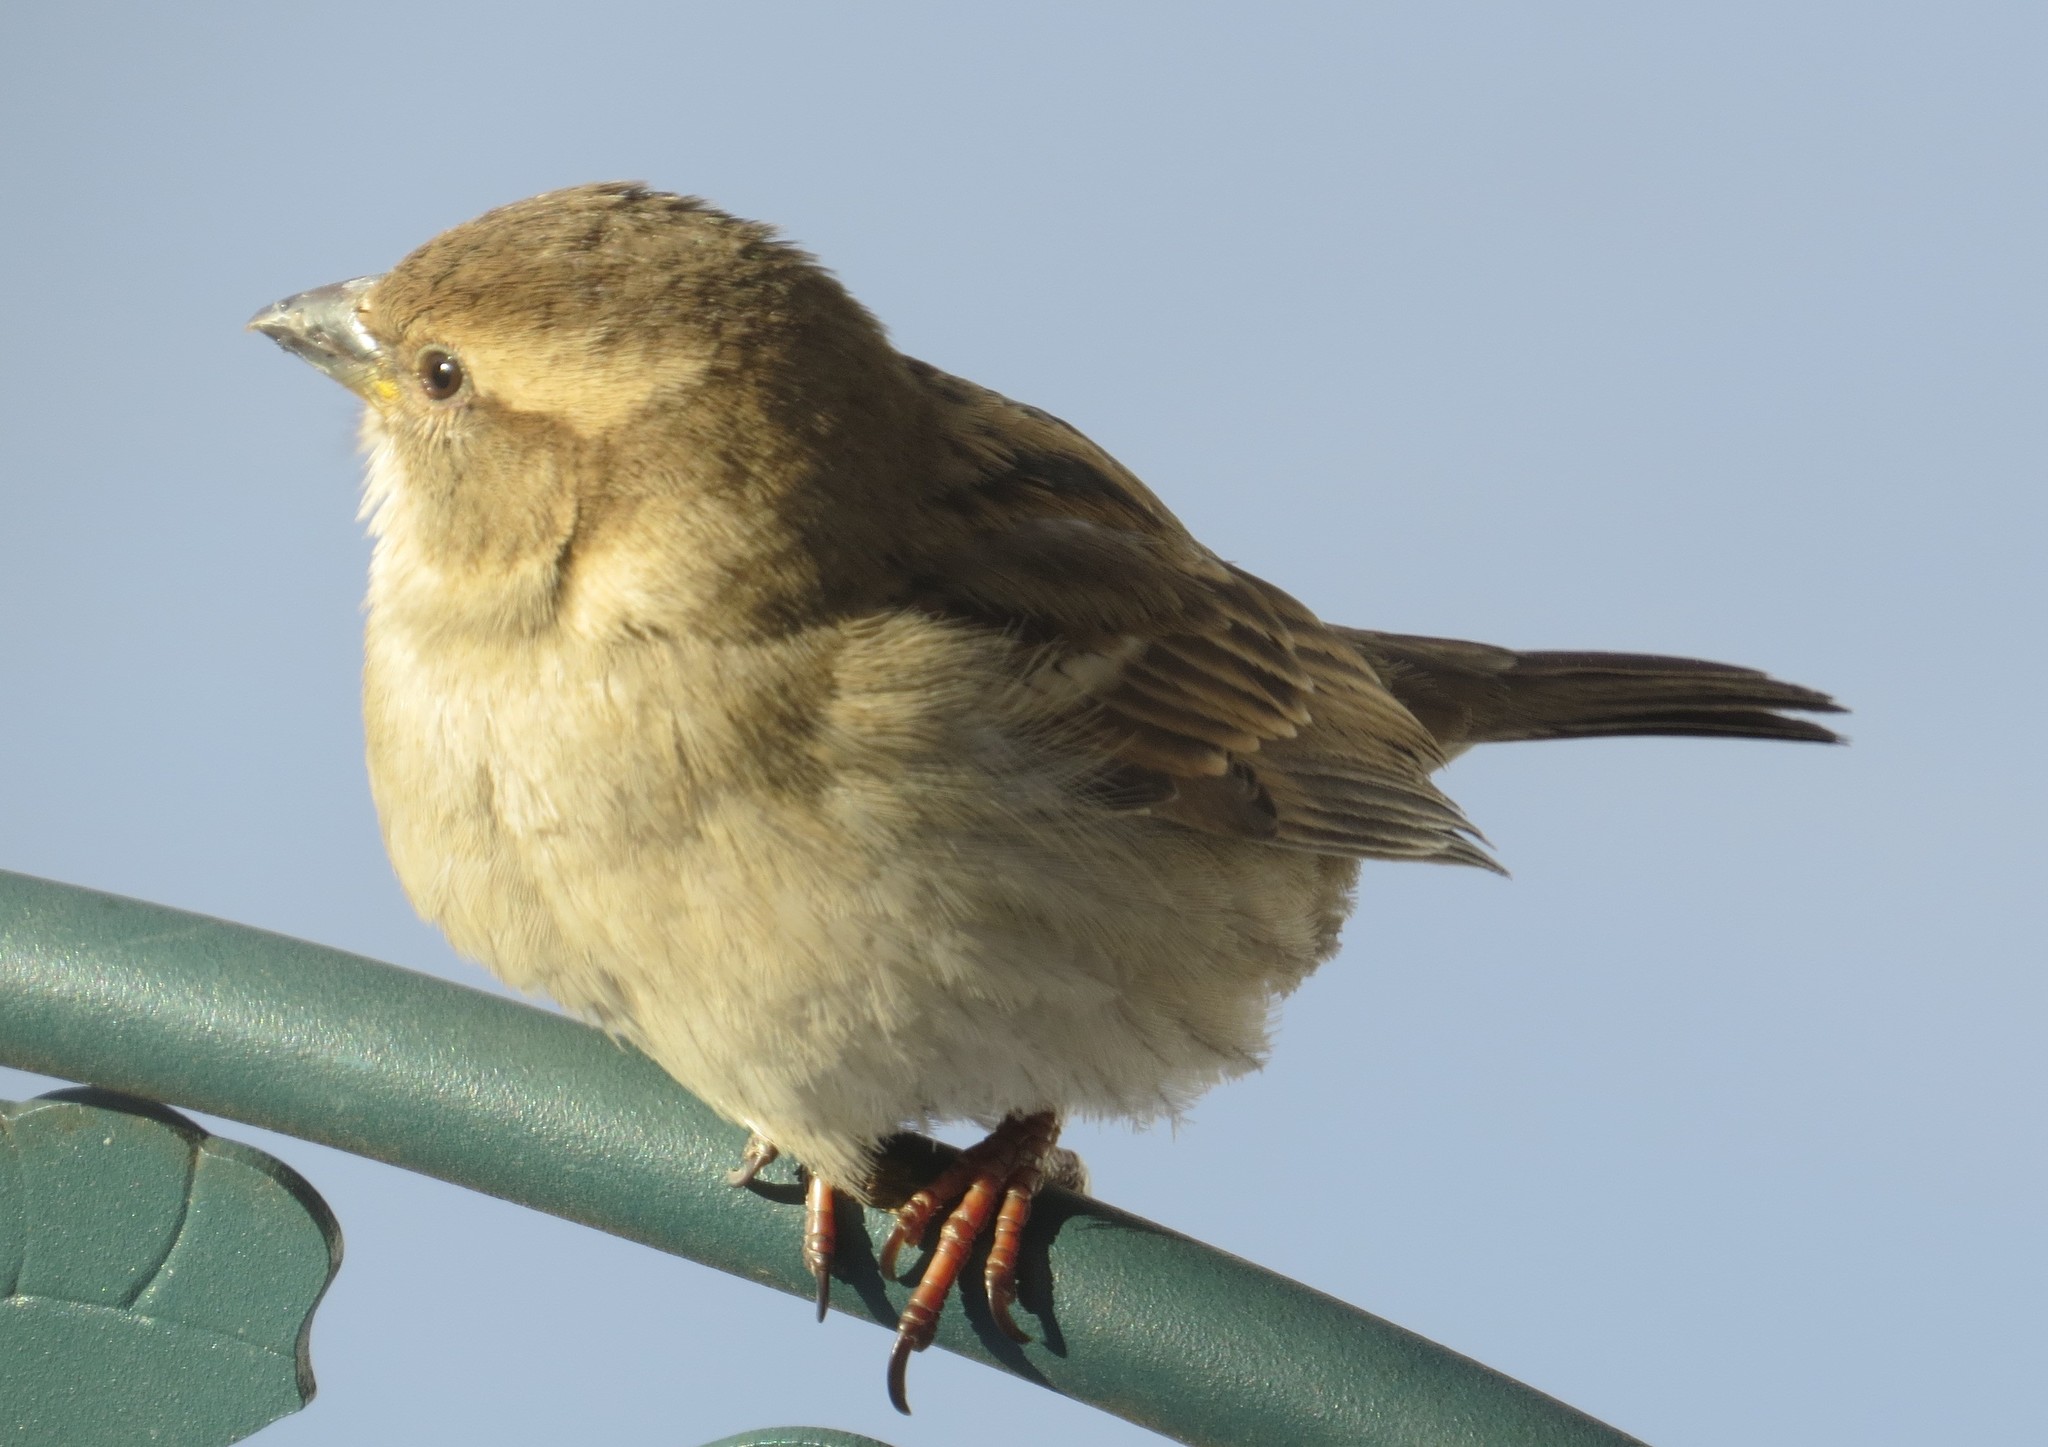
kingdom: Animalia
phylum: Chordata
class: Aves
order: Passeriformes
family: Passeridae
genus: Passer
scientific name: Passer domesticus
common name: House sparrow
